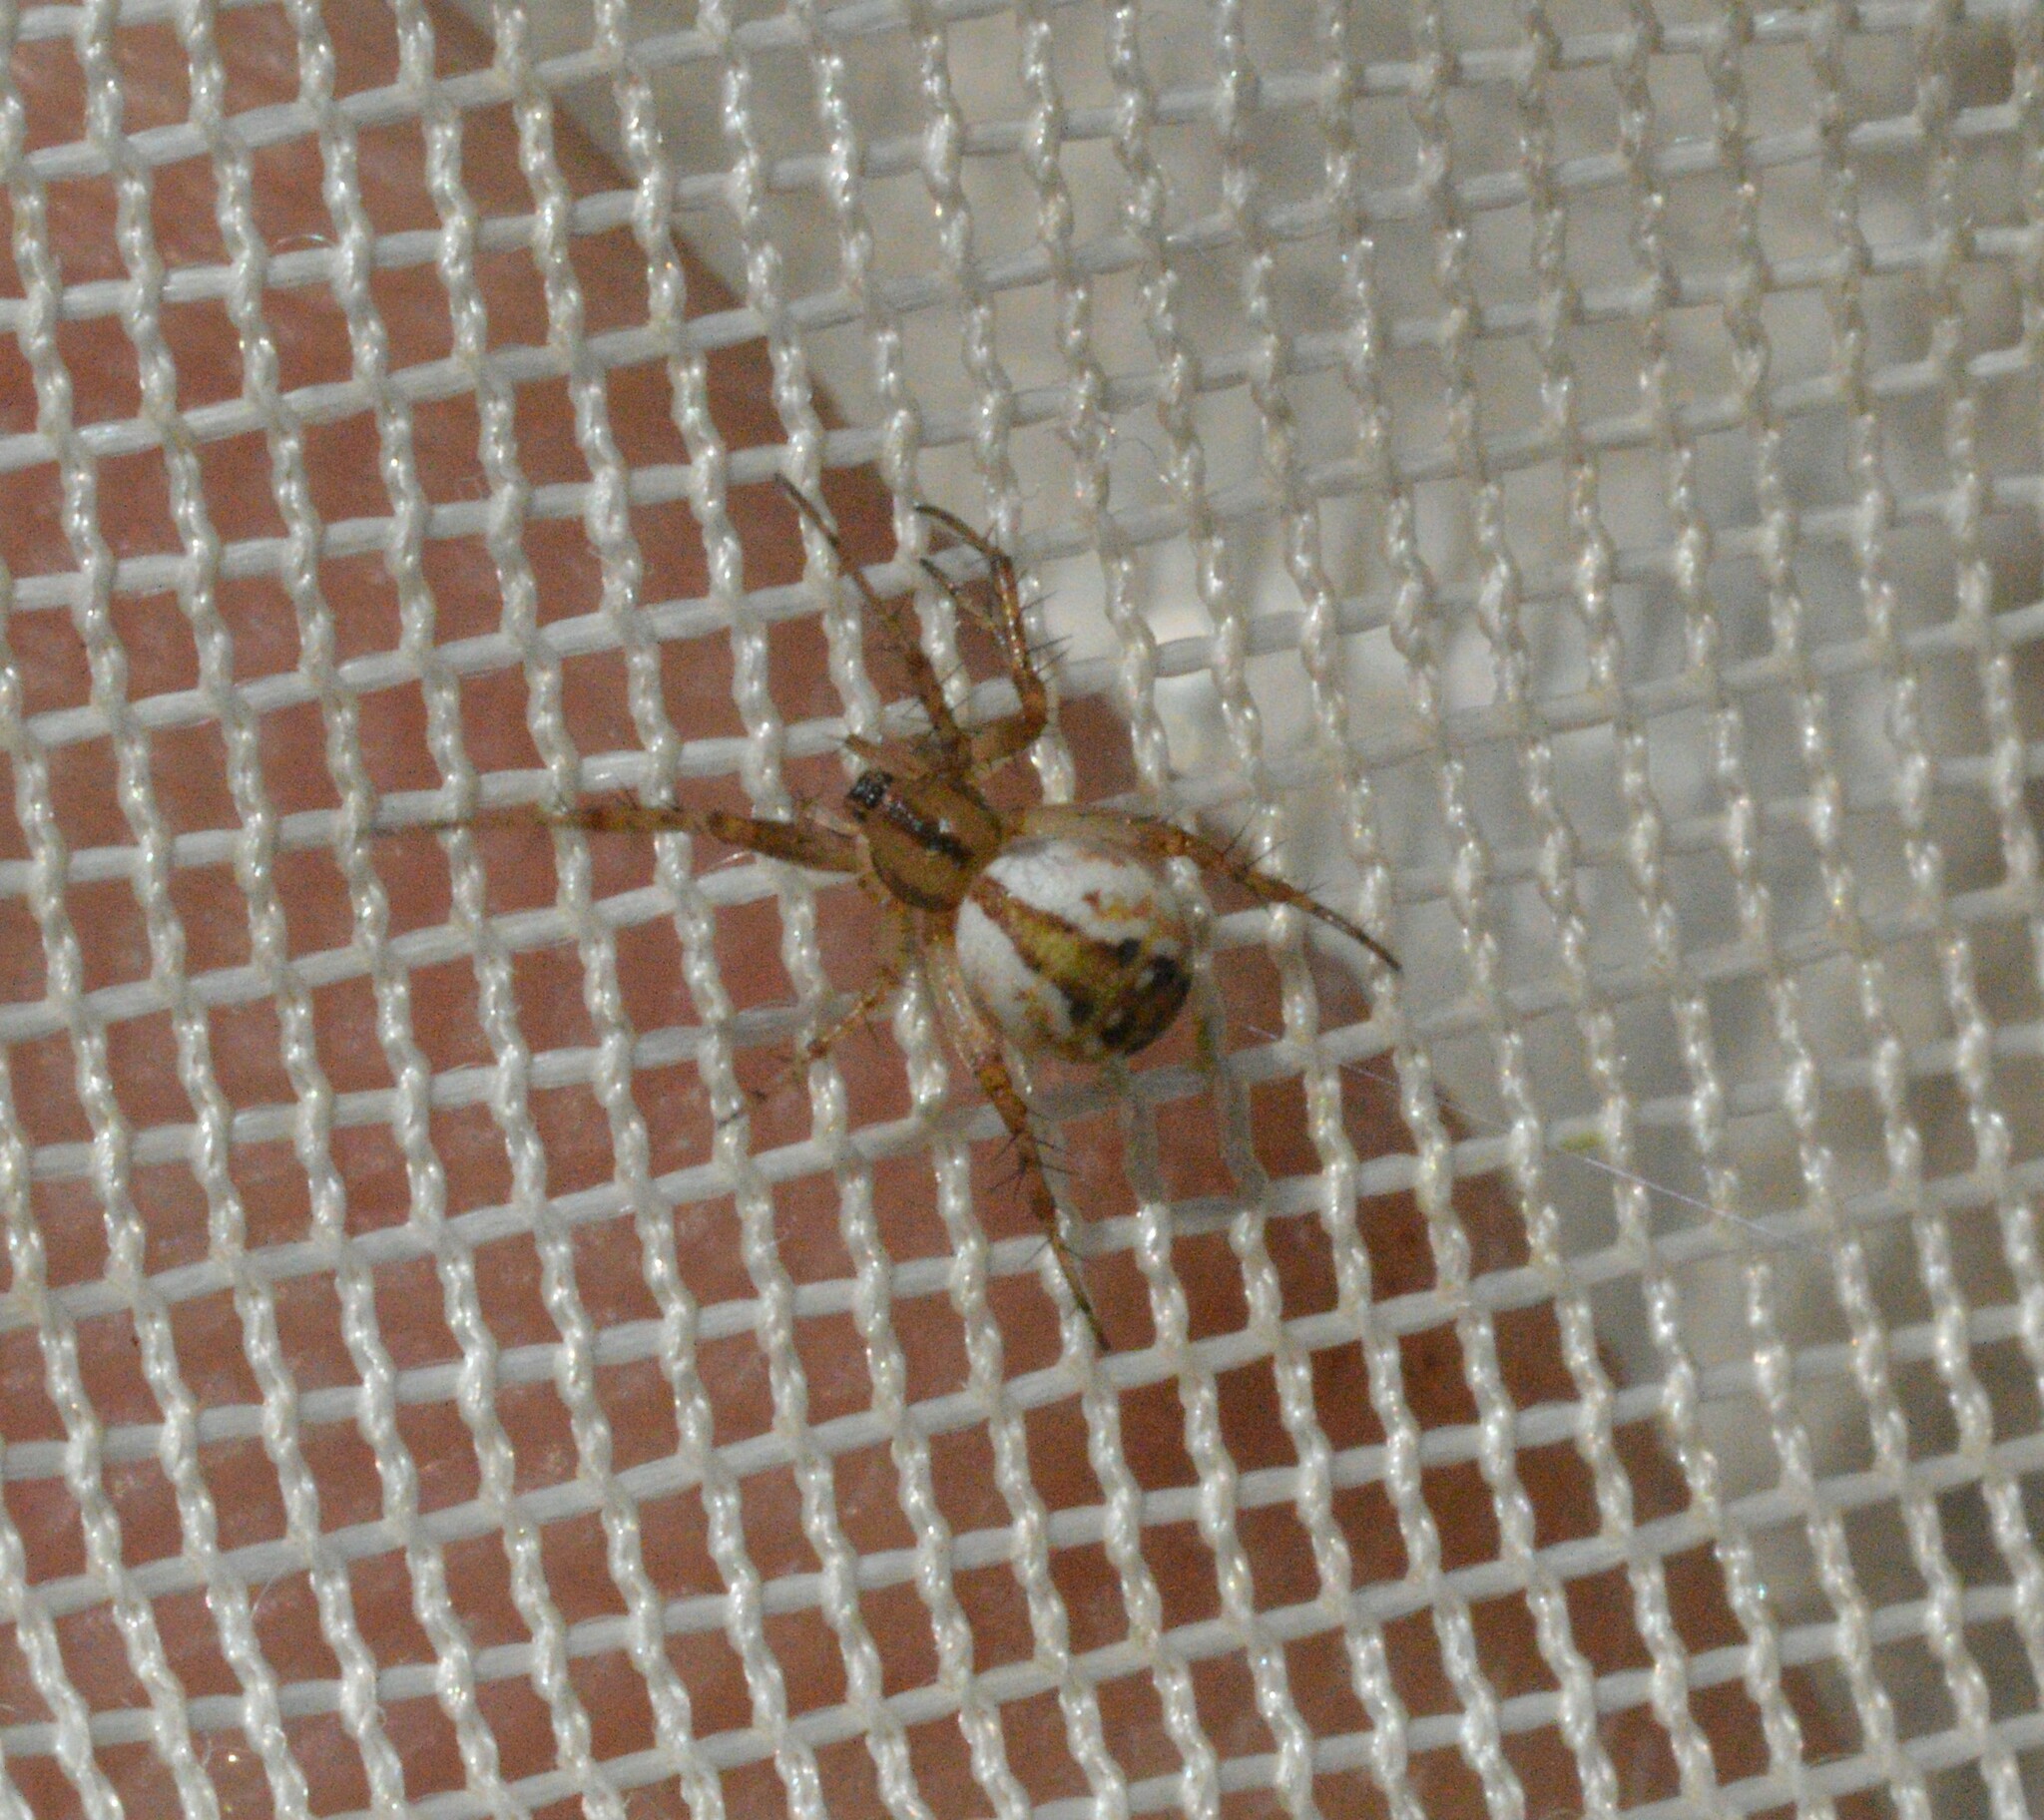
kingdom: Animalia
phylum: Arthropoda
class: Arachnida
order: Araneae
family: Araneidae
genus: Mangora
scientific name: Mangora placida
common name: Tuft-legged orbweaver
